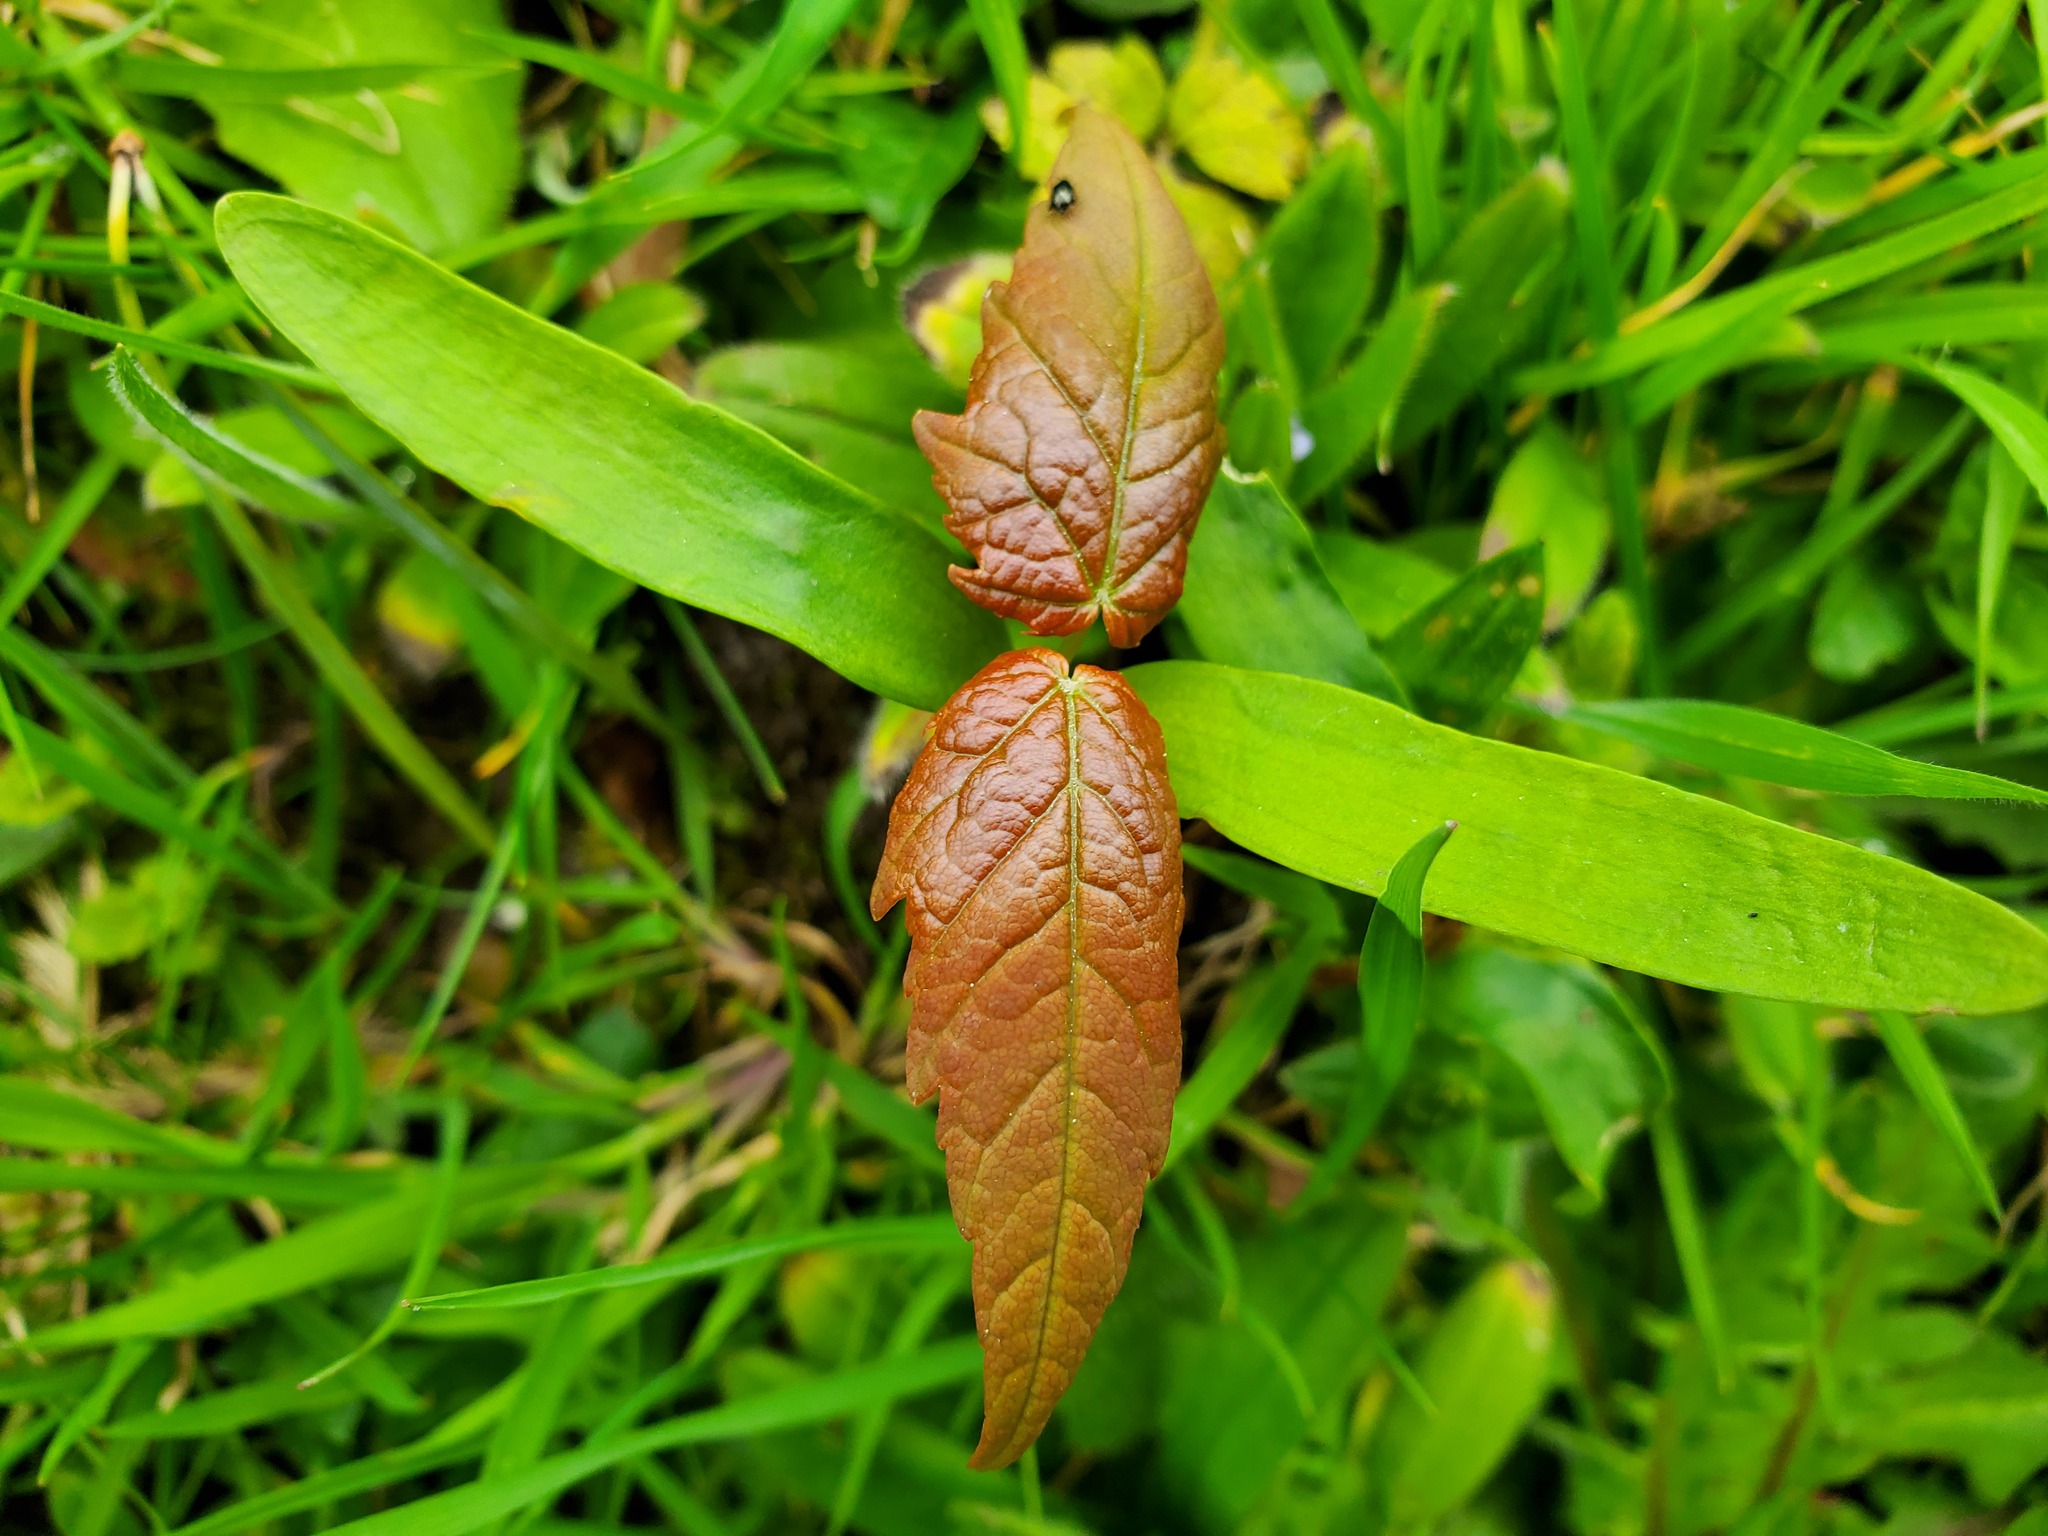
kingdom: Plantae
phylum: Tracheophyta
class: Magnoliopsida
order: Sapindales
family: Sapindaceae
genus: Acer
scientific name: Acer pseudoplatanus
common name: Sycamore
